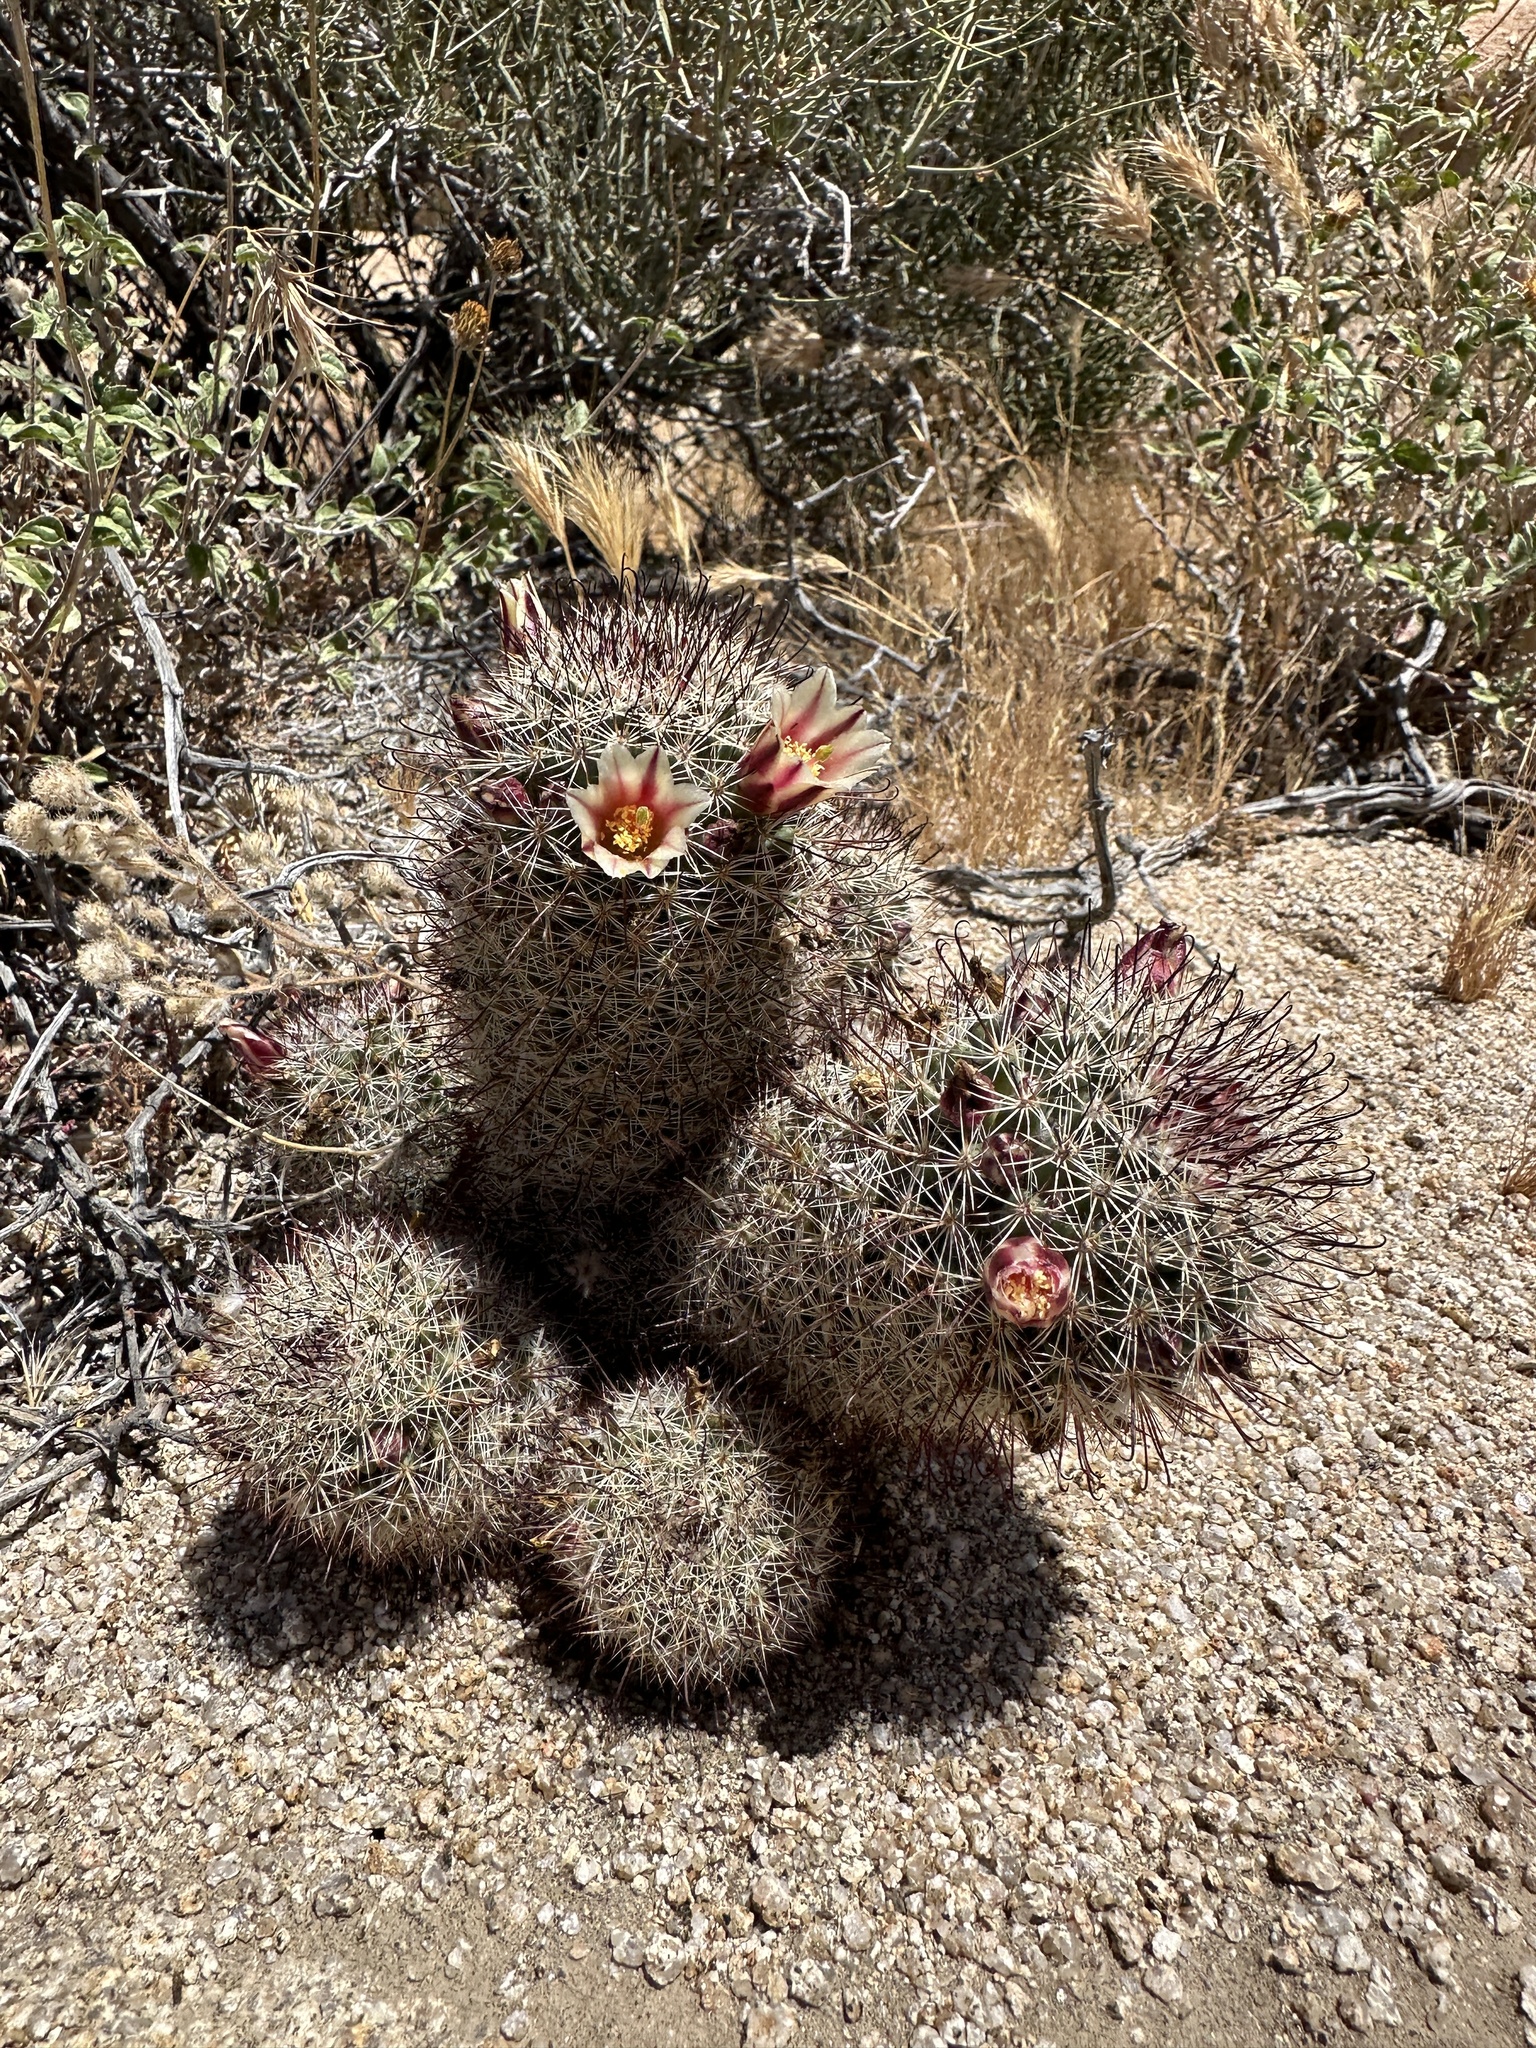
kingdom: Plantae
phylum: Tracheophyta
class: Magnoliopsida
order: Caryophyllales
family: Cactaceae
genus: Cochemiea
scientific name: Cochemiea dioica
